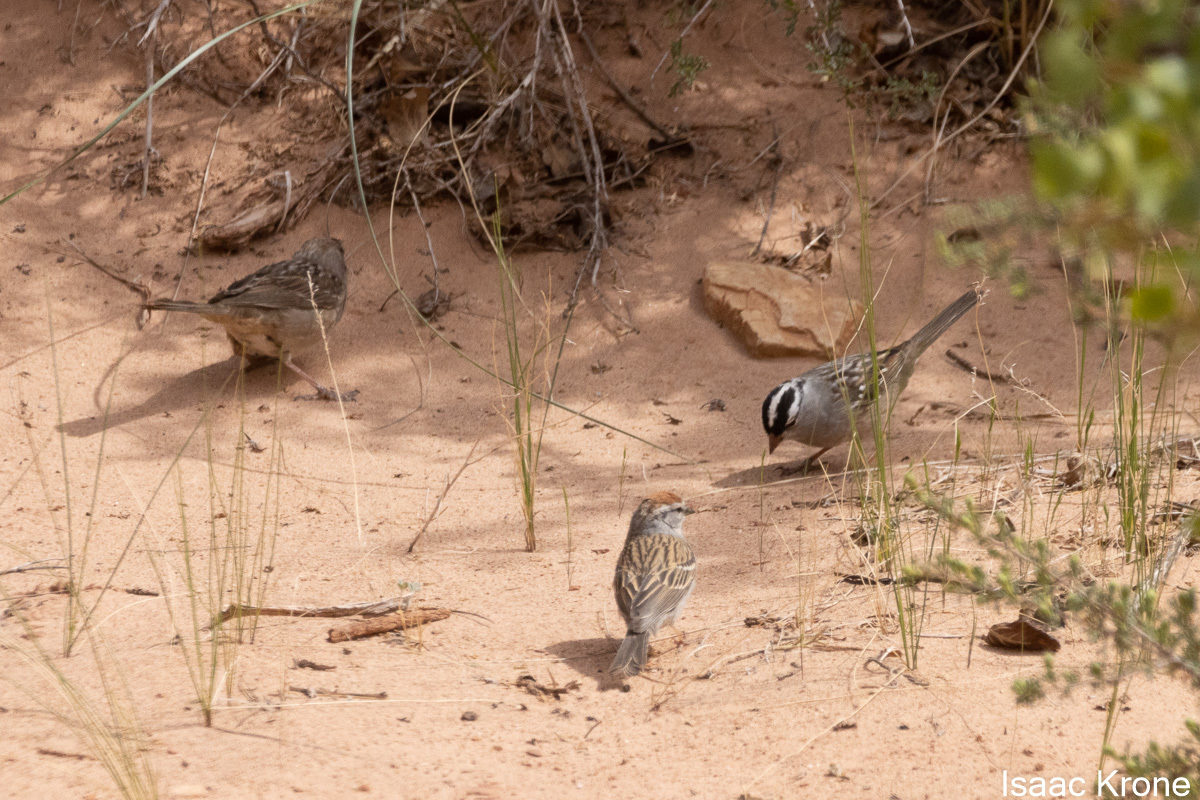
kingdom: Animalia
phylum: Chordata
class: Aves
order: Passeriformes
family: Passerellidae
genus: Spizella
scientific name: Spizella passerina
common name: Chipping sparrow
